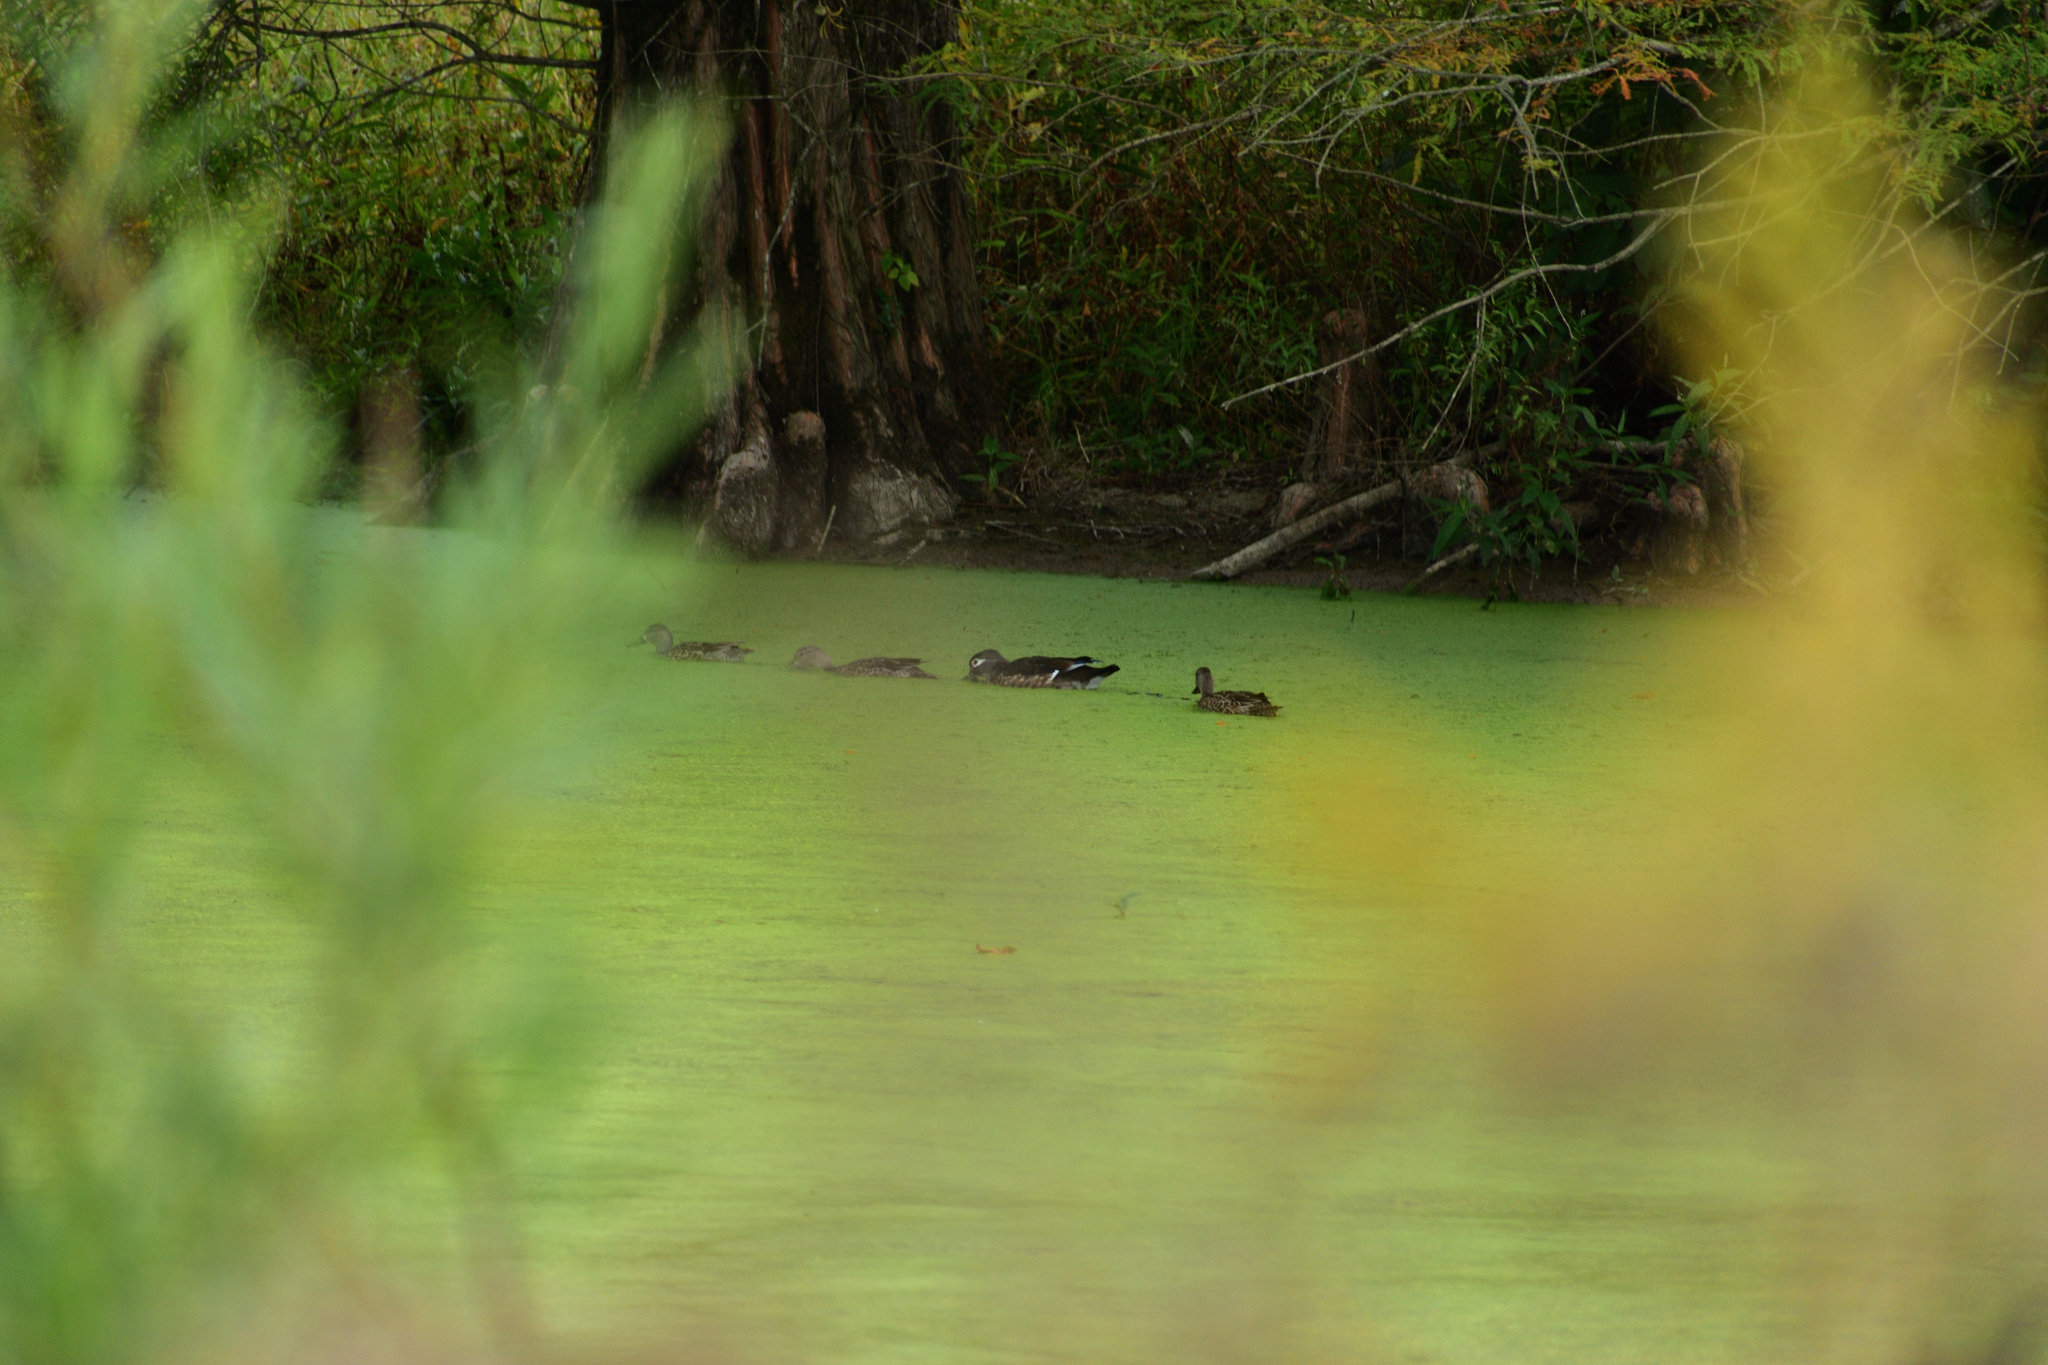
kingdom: Animalia
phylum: Chordata
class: Aves
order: Anseriformes
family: Anatidae
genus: Aix
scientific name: Aix sponsa
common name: Wood duck
